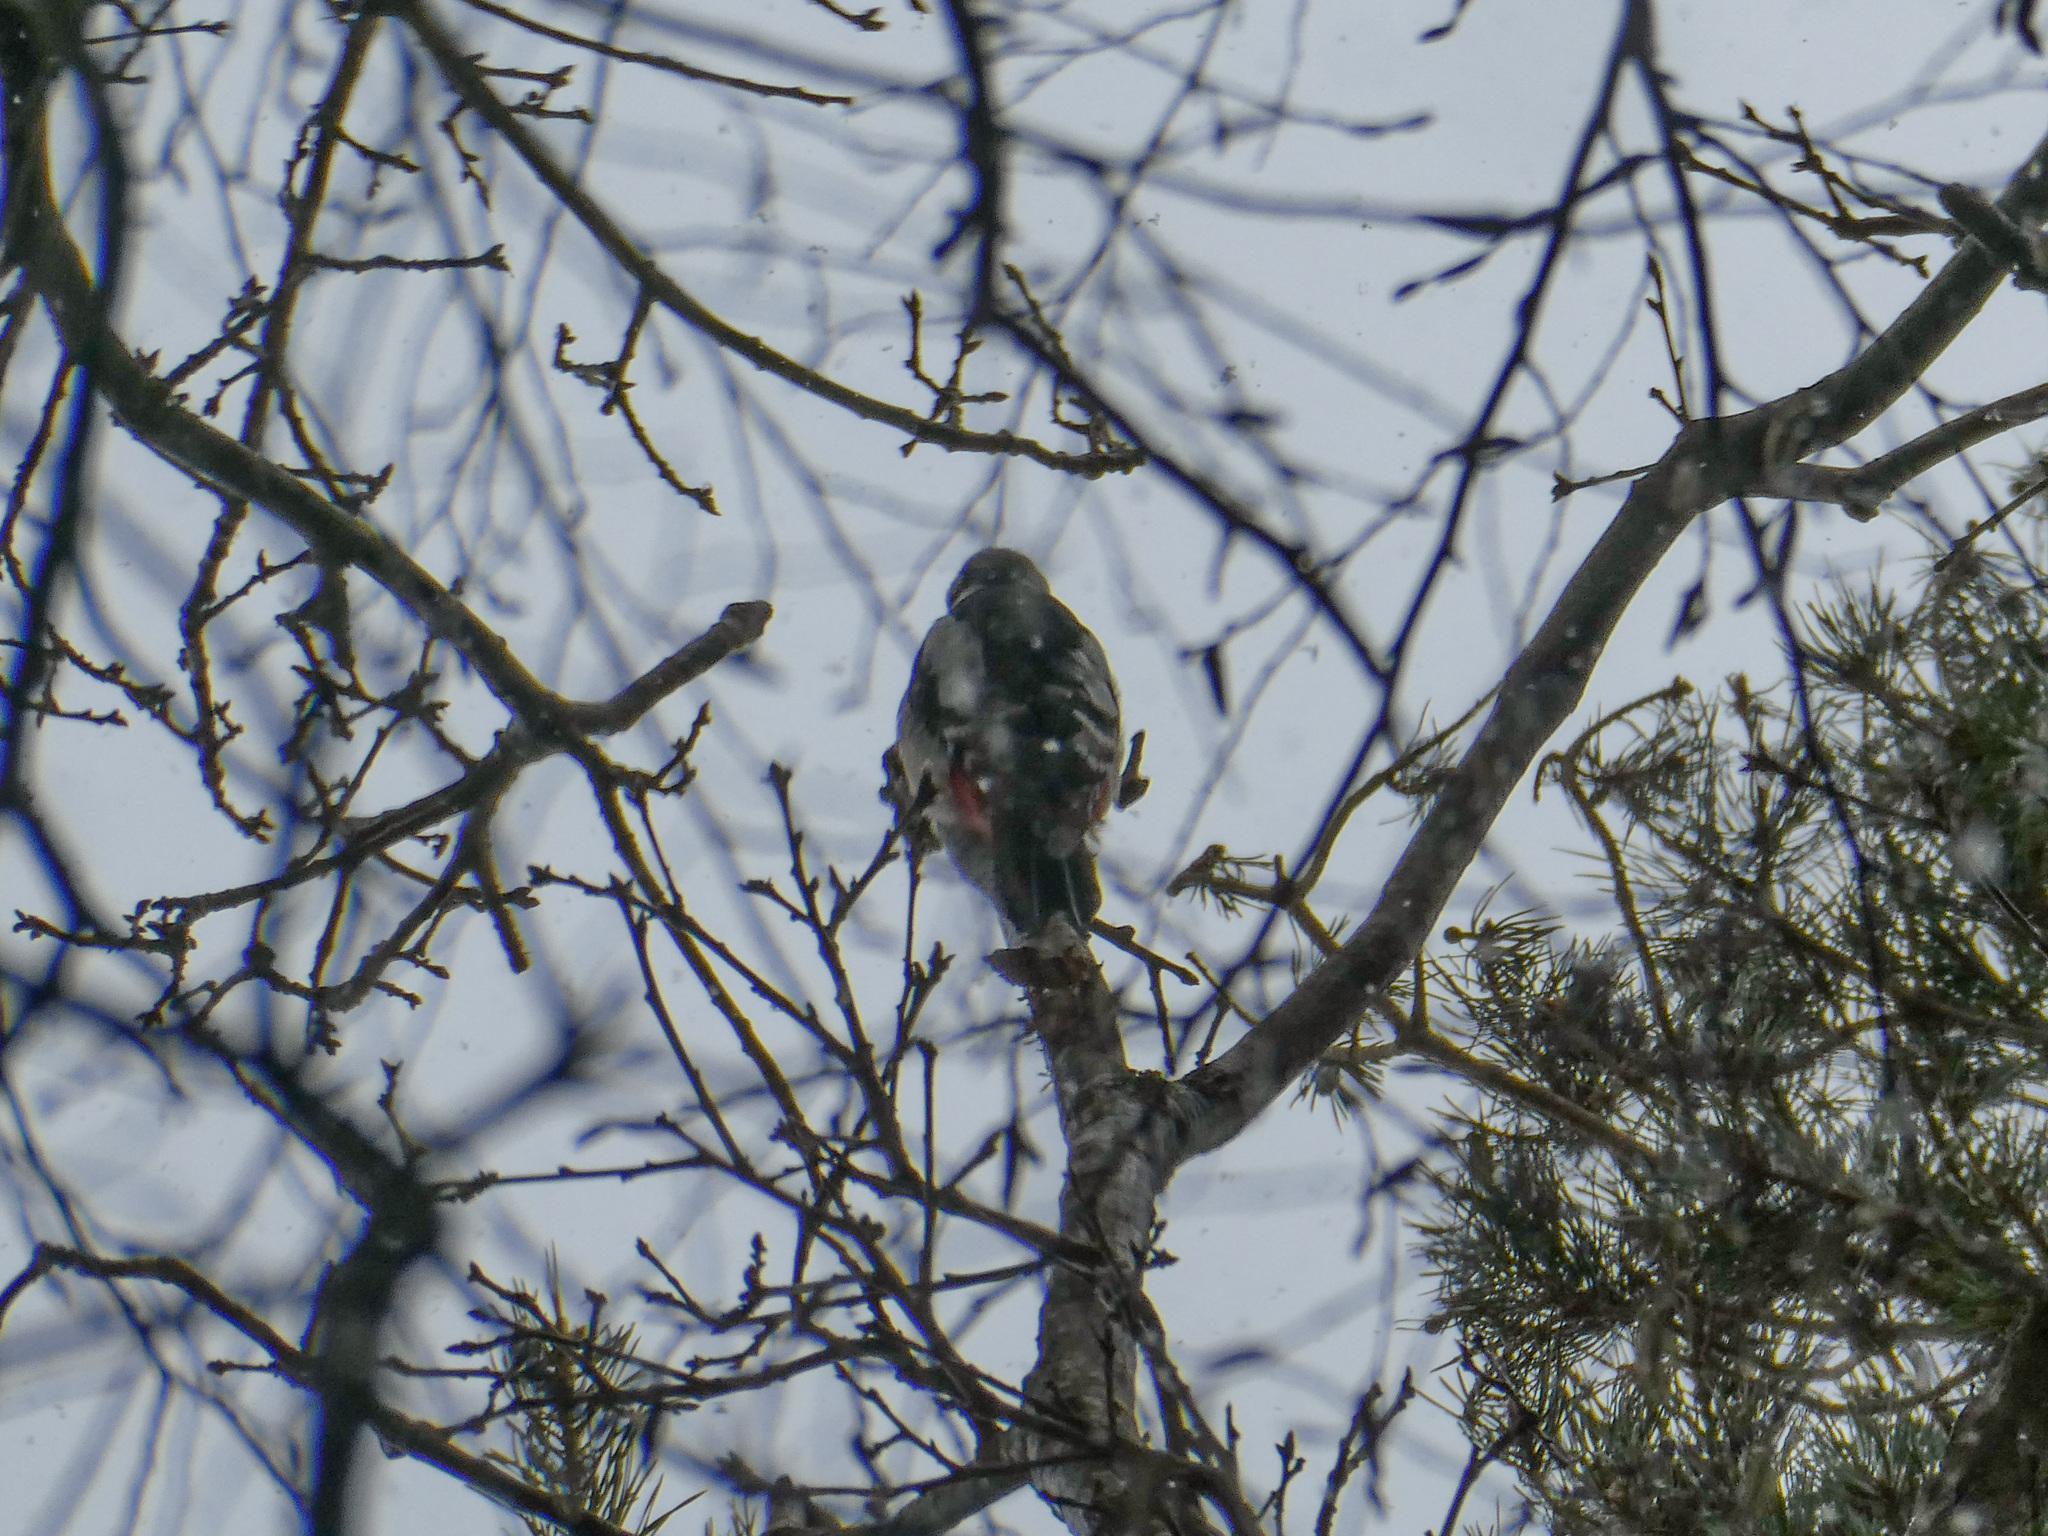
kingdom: Animalia
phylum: Chordata
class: Aves
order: Piciformes
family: Picidae
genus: Dendrocopos
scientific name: Dendrocopos major
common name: Great spotted woodpecker
